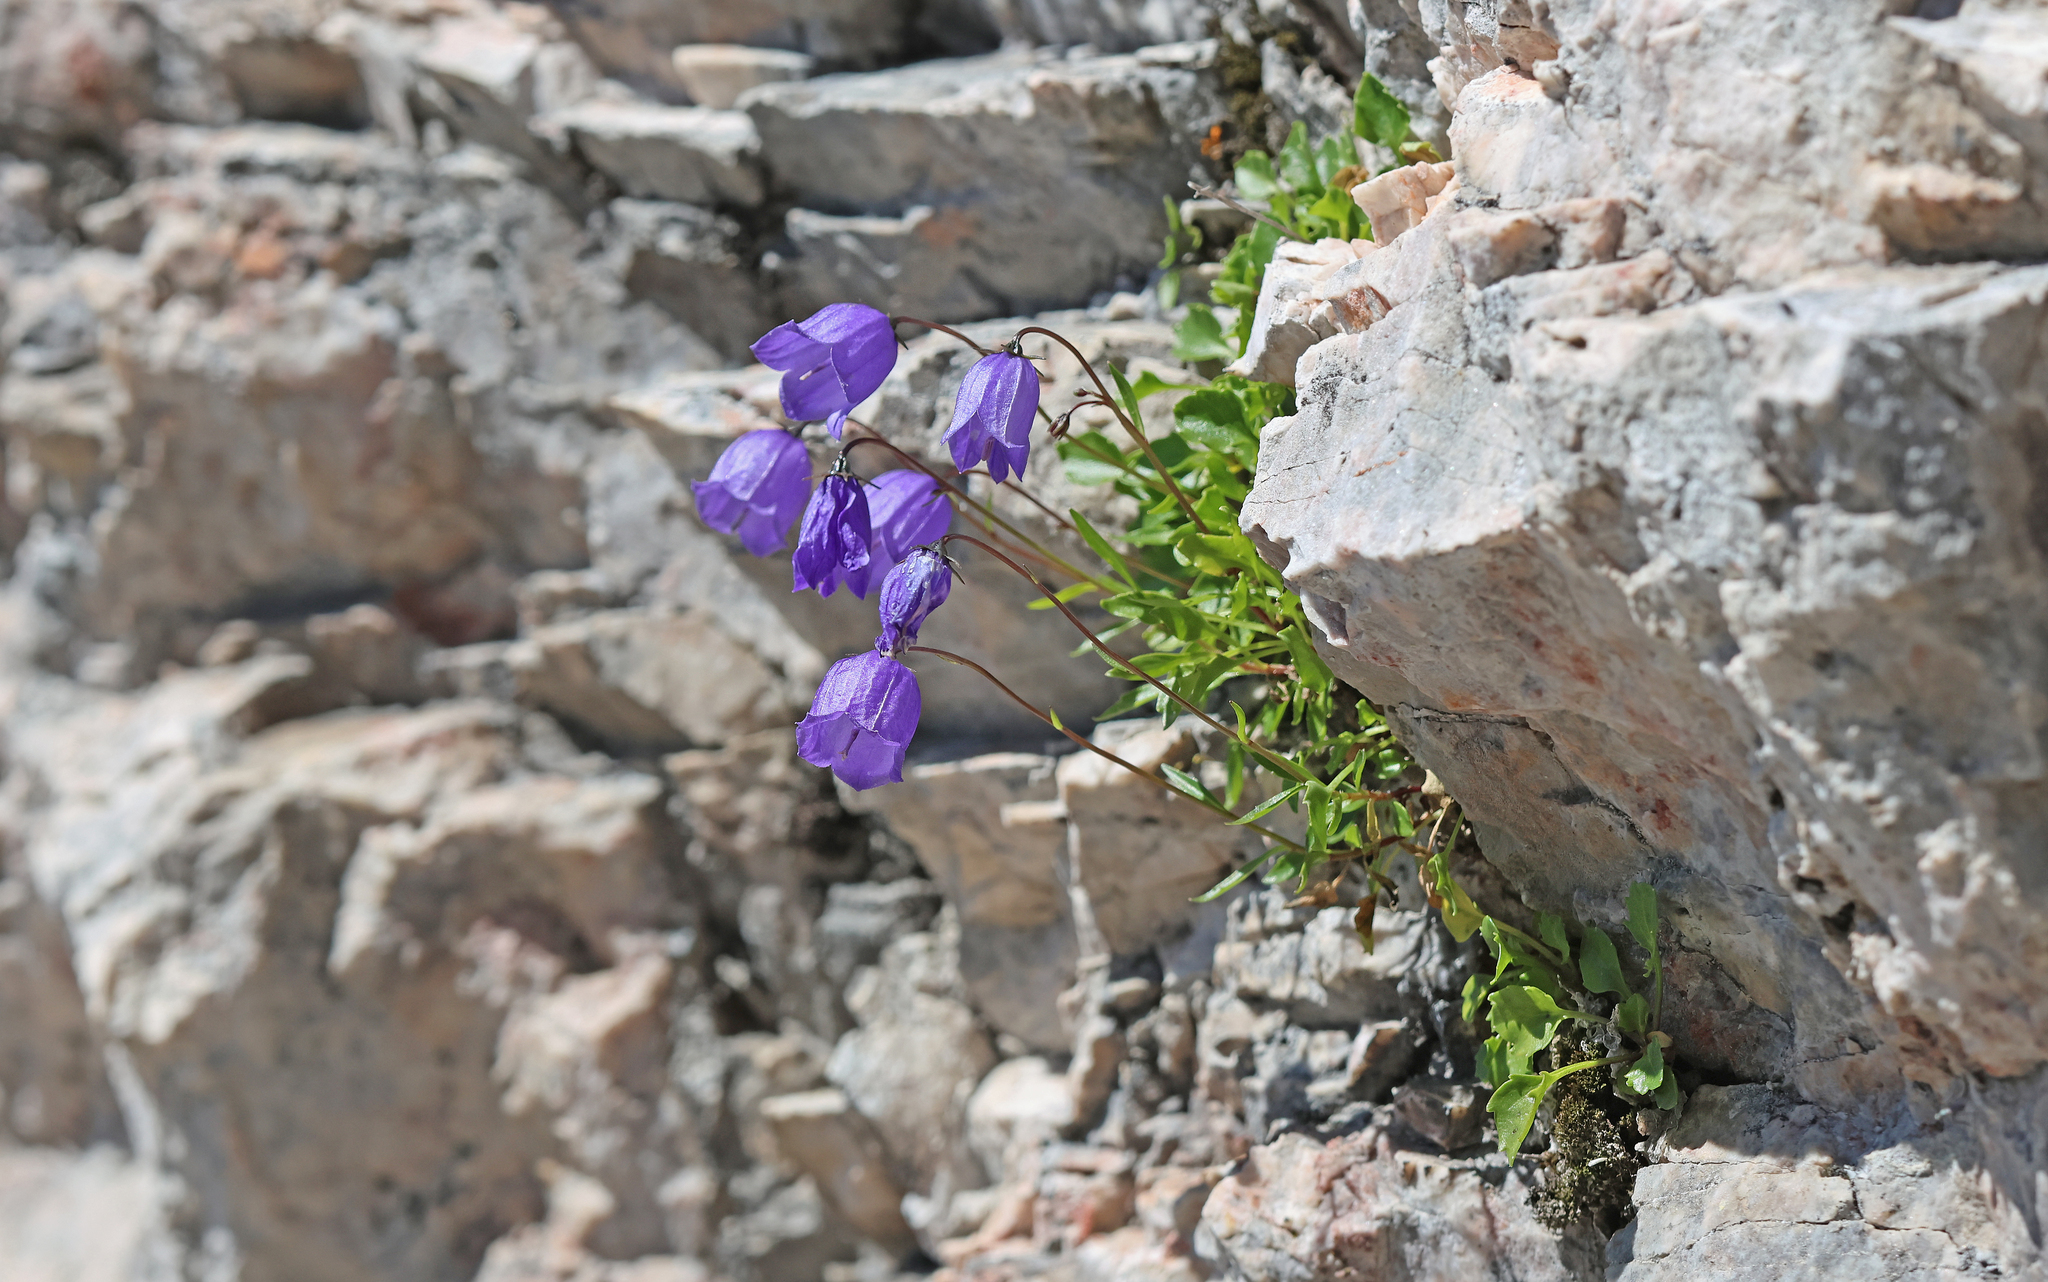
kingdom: Plantae
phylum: Tracheophyta
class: Magnoliopsida
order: Asterales
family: Campanulaceae
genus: Campanula
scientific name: Campanula cochleariifolia
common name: Fairies'-thimbles
